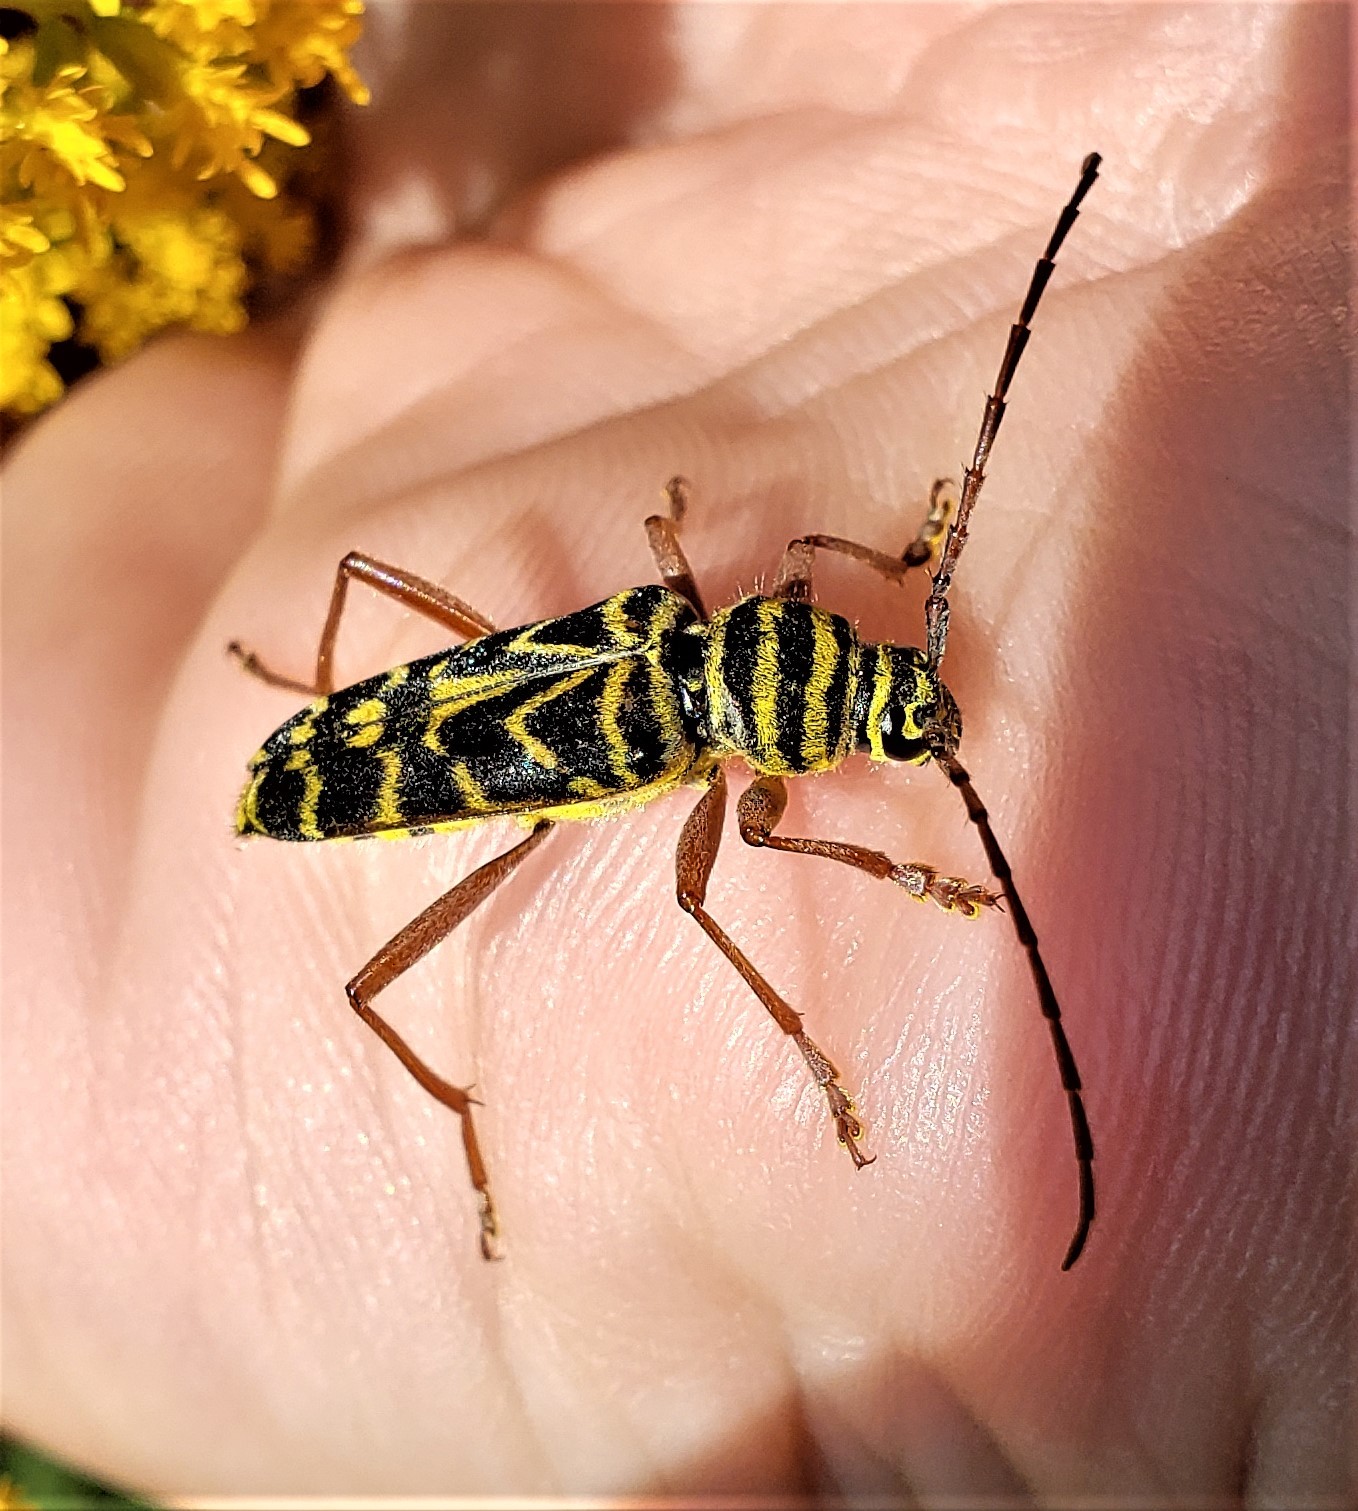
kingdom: Animalia
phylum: Arthropoda
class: Insecta
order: Coleoptera
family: Cerambycidae
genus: Megacyllene
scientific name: Megacyllene robiniae
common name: Locust borer
